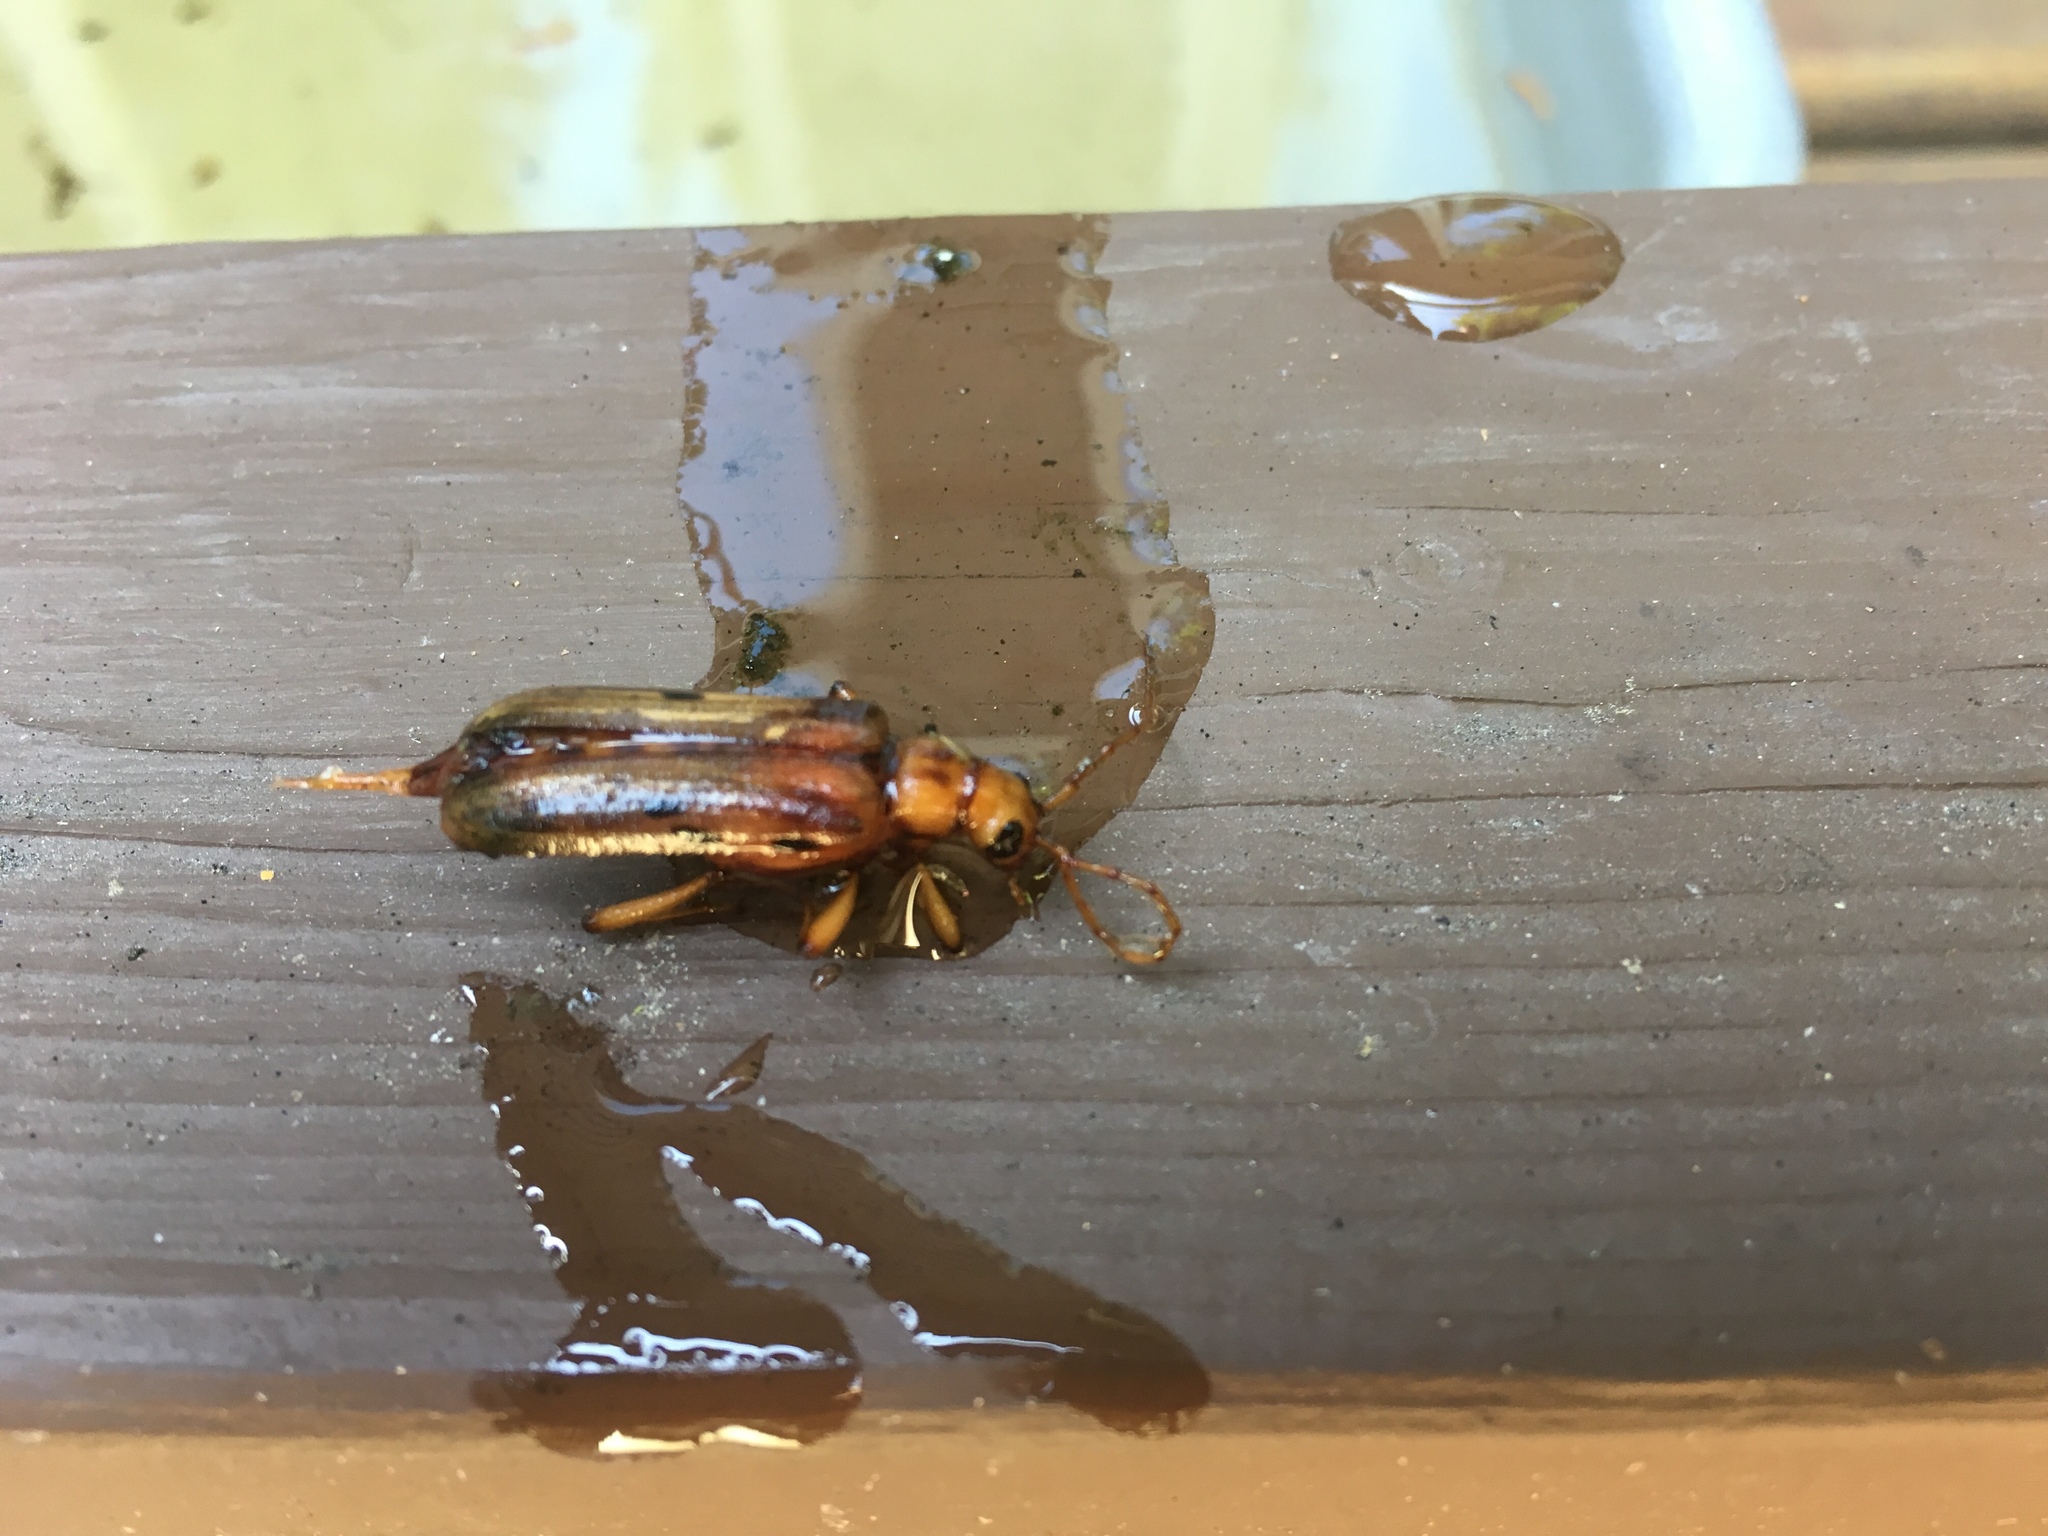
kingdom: Animalia
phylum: Arthropoda
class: Insecta
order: Coleoptera
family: Cerambycidae
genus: Ortholeptura
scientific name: Ortholeptura valida
